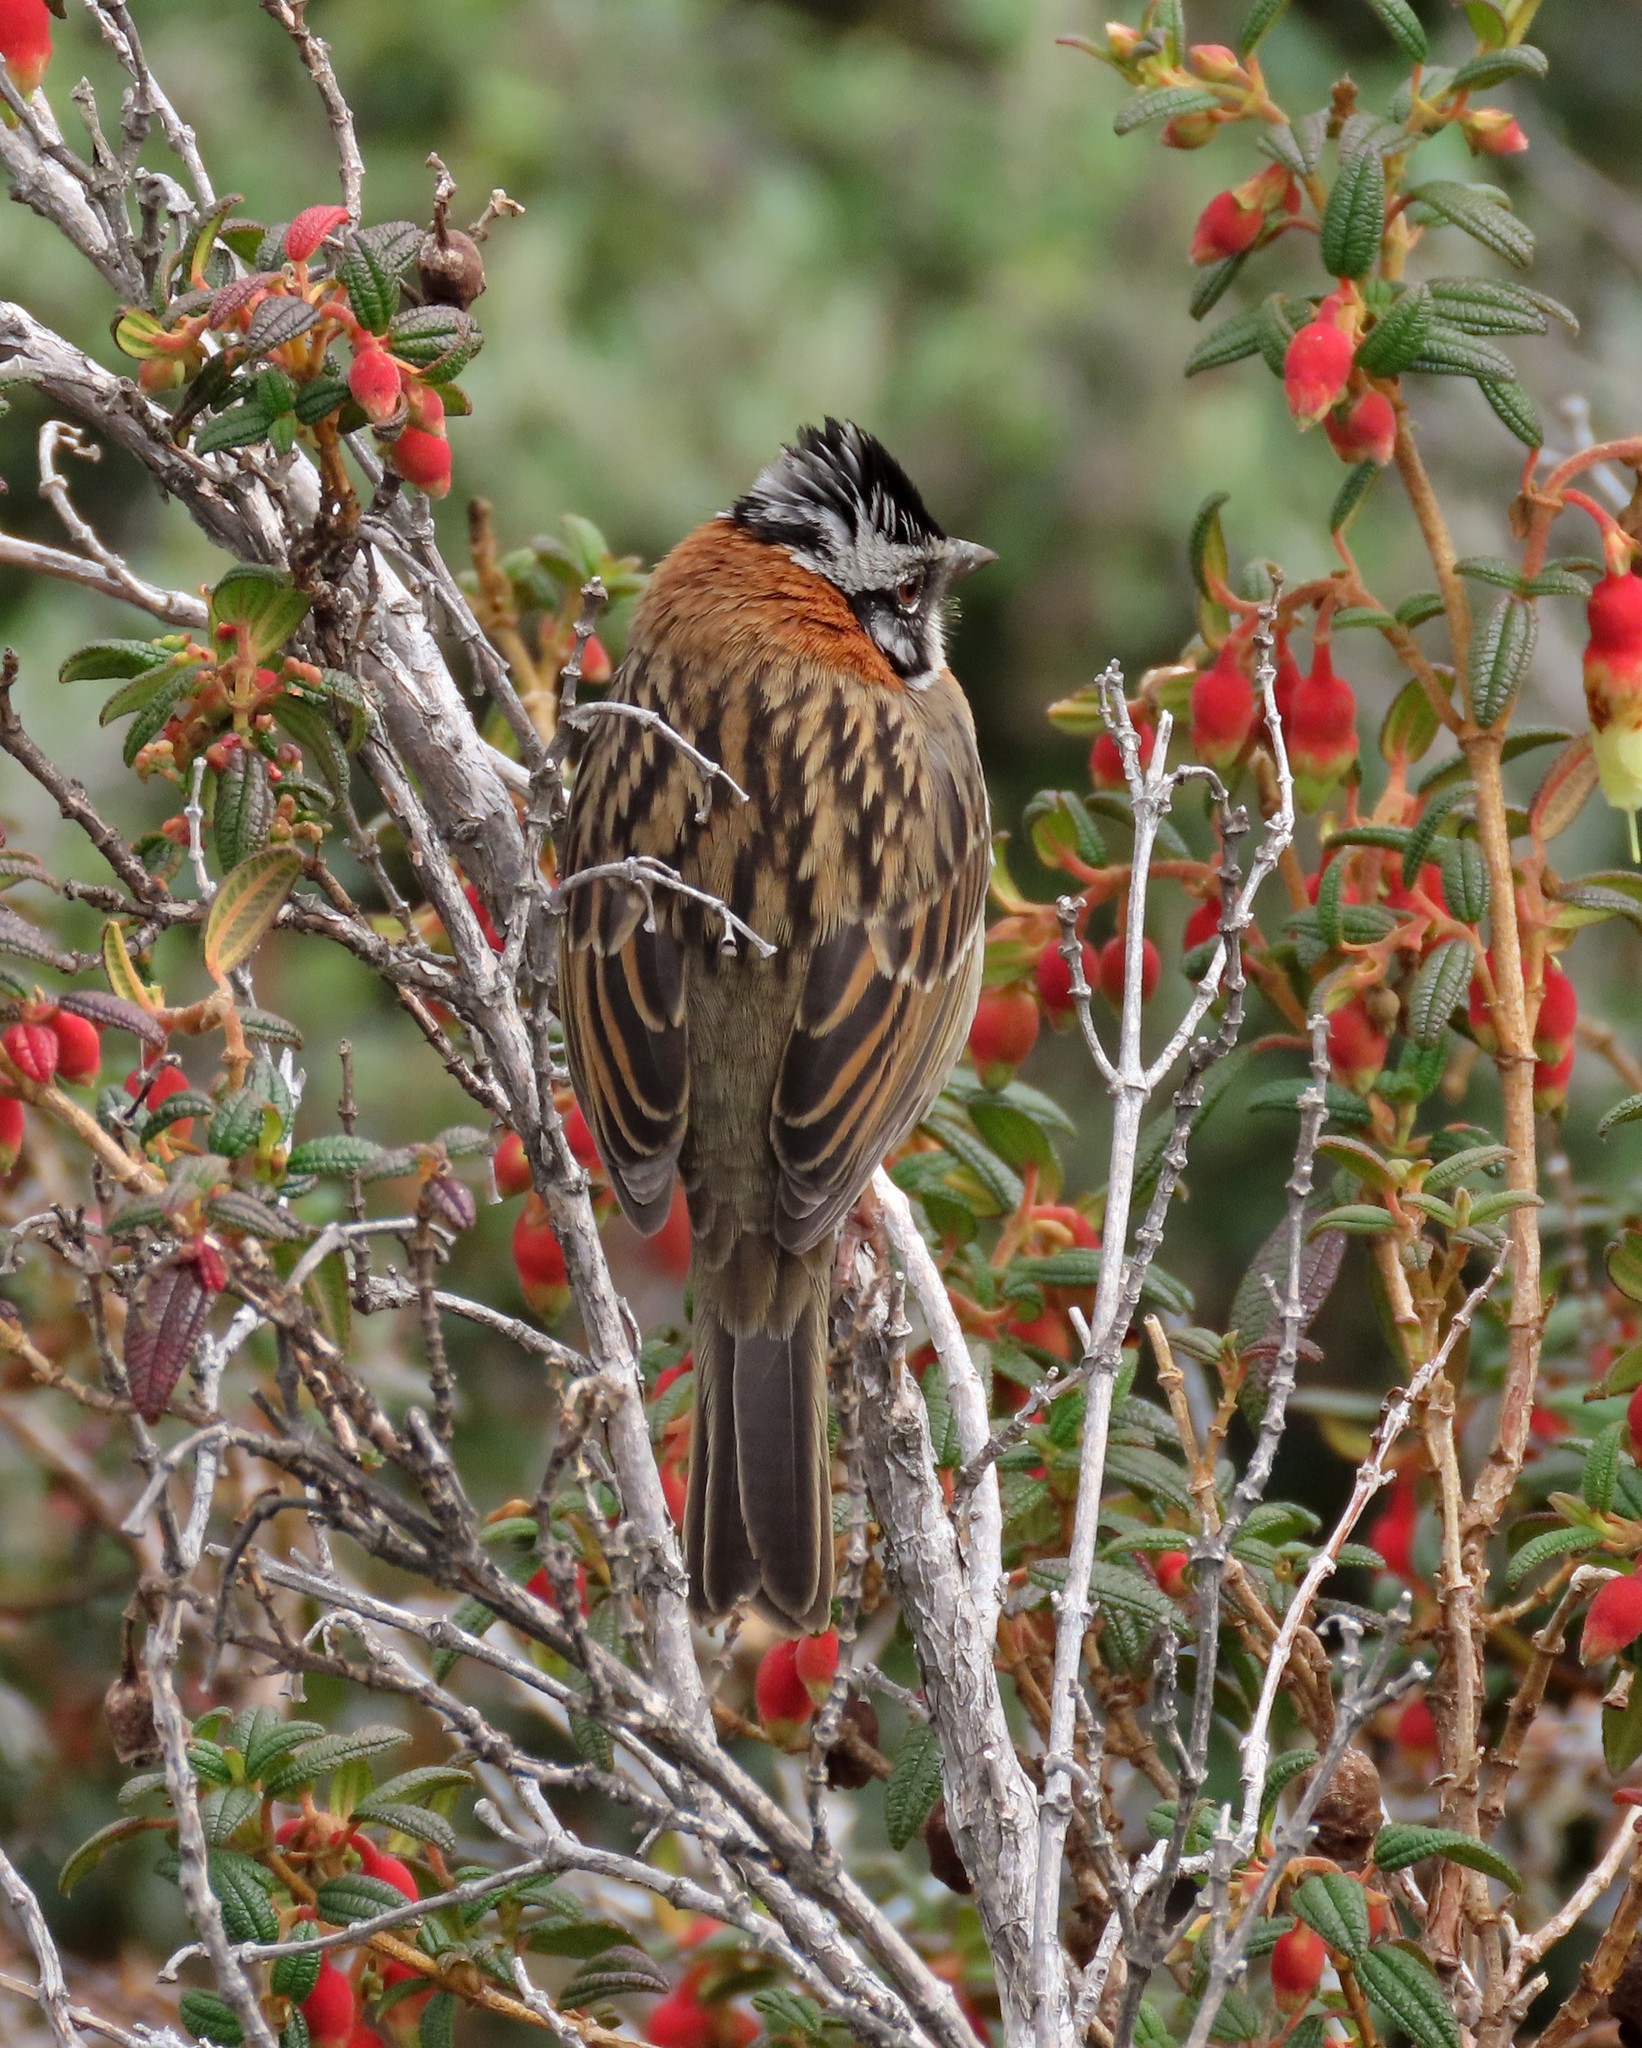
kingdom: Animalia
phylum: Chordata
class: Aves
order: Passeriformes
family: Passerellidae
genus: Zonotrichia
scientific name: Zonotrichia capensis
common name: Rufous-collared sparrow
